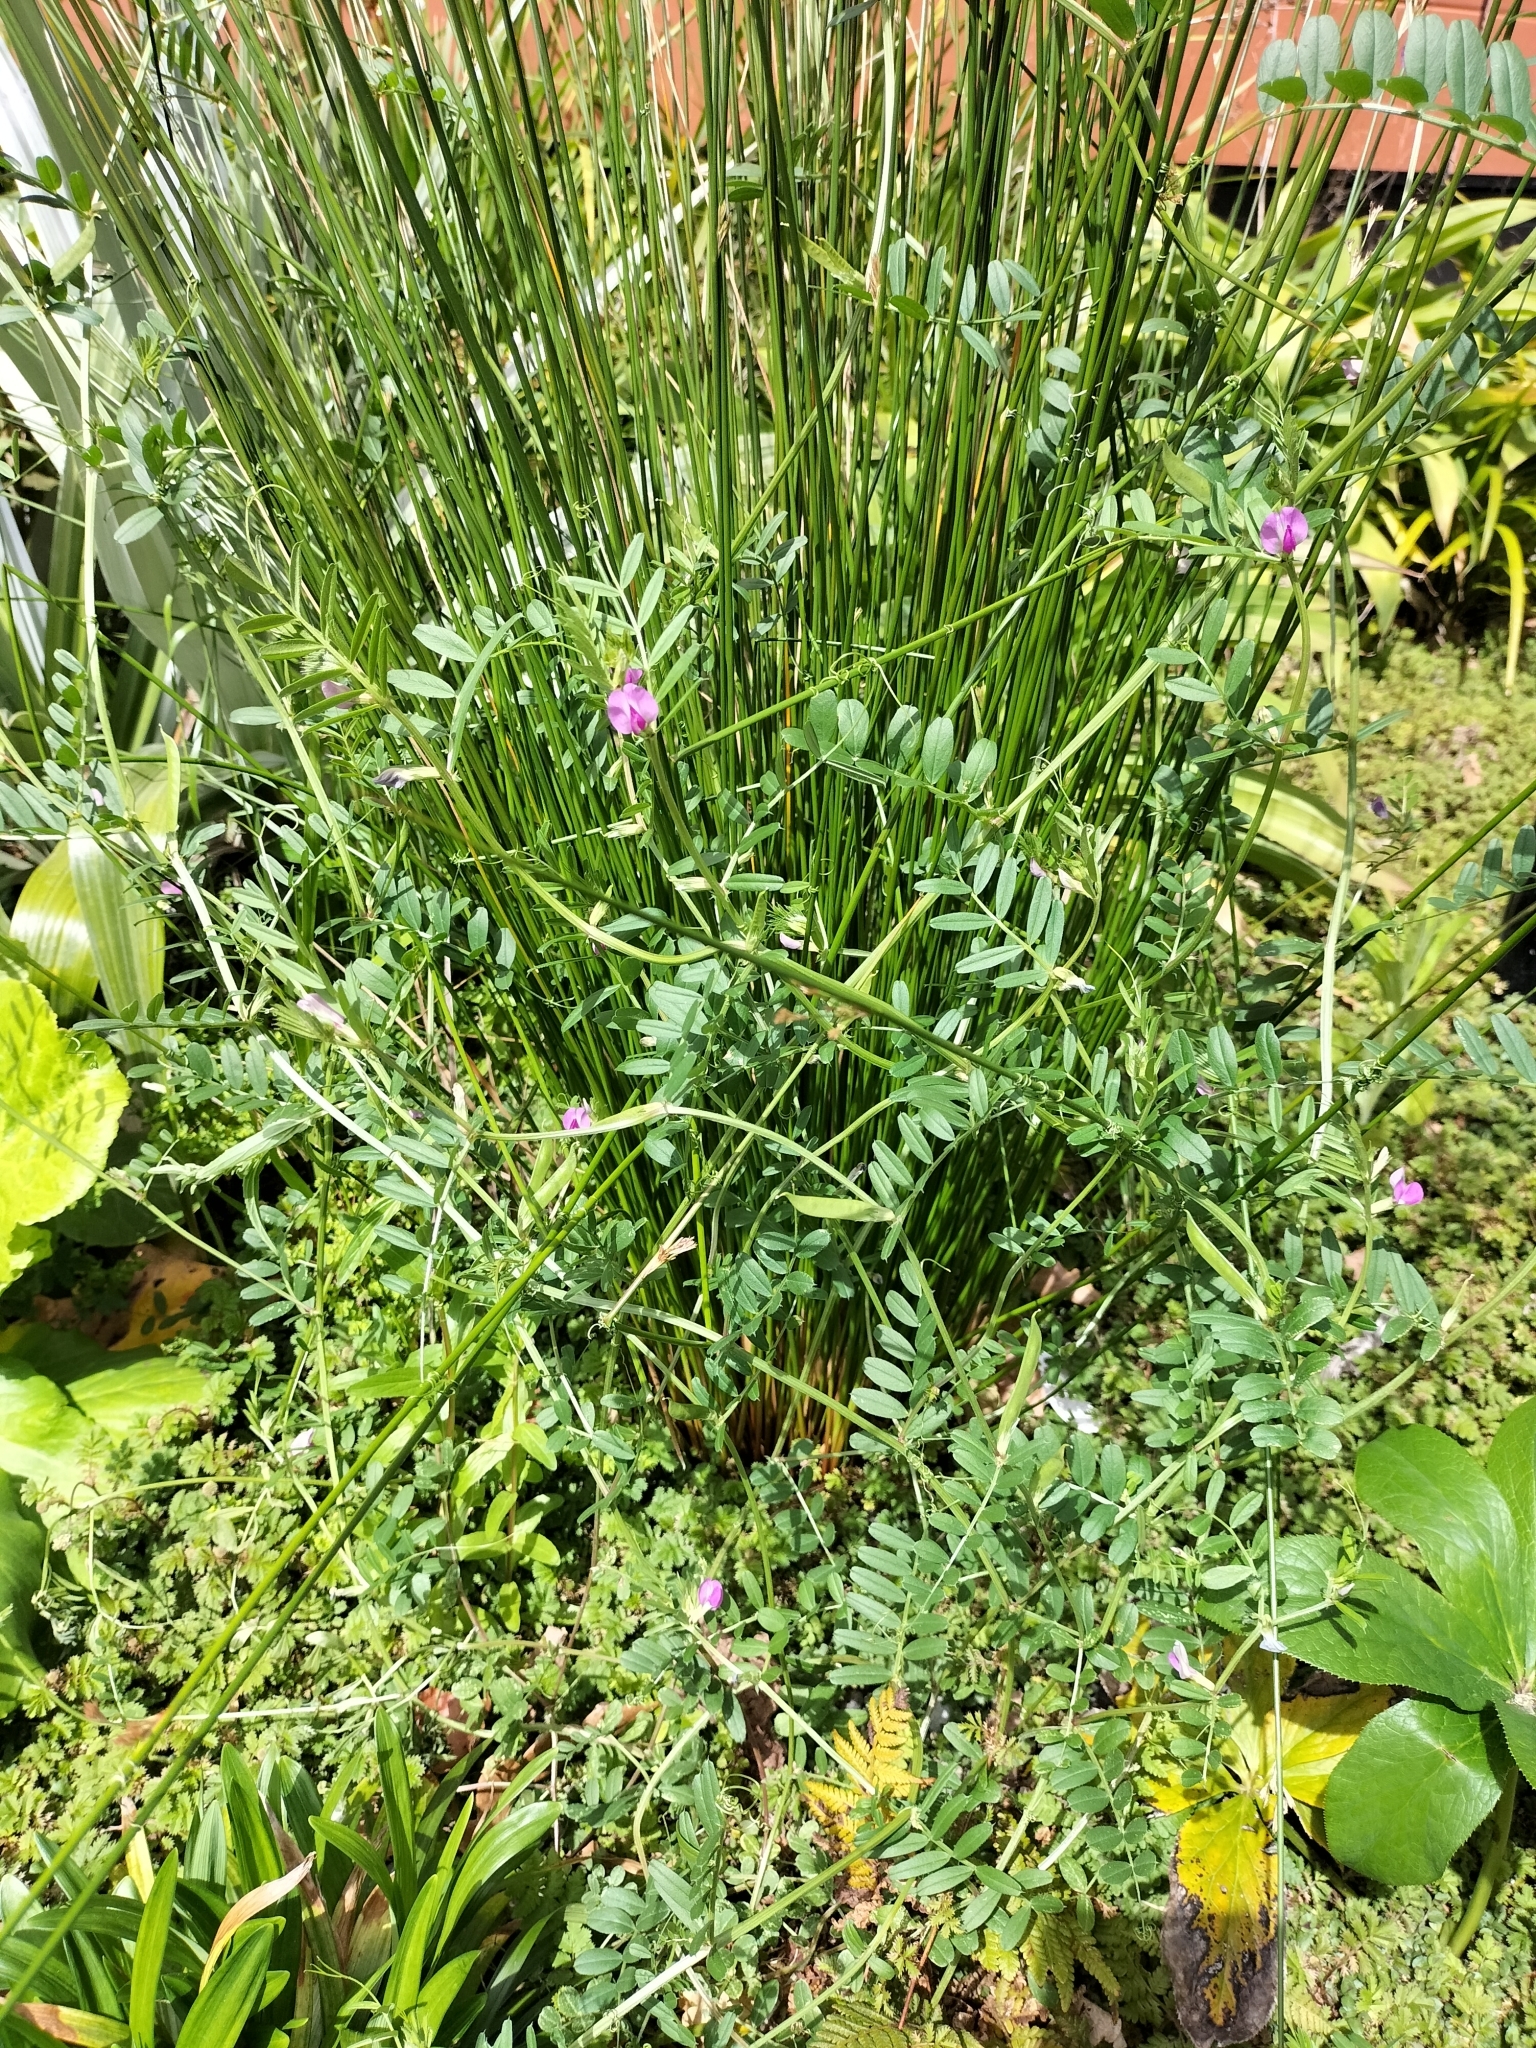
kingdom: Plantae
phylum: Tracheophyta
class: Magnoliopsida
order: Fabales
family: Fabaceae
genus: Vicia
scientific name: Vicia sativa
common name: Garden vetch
